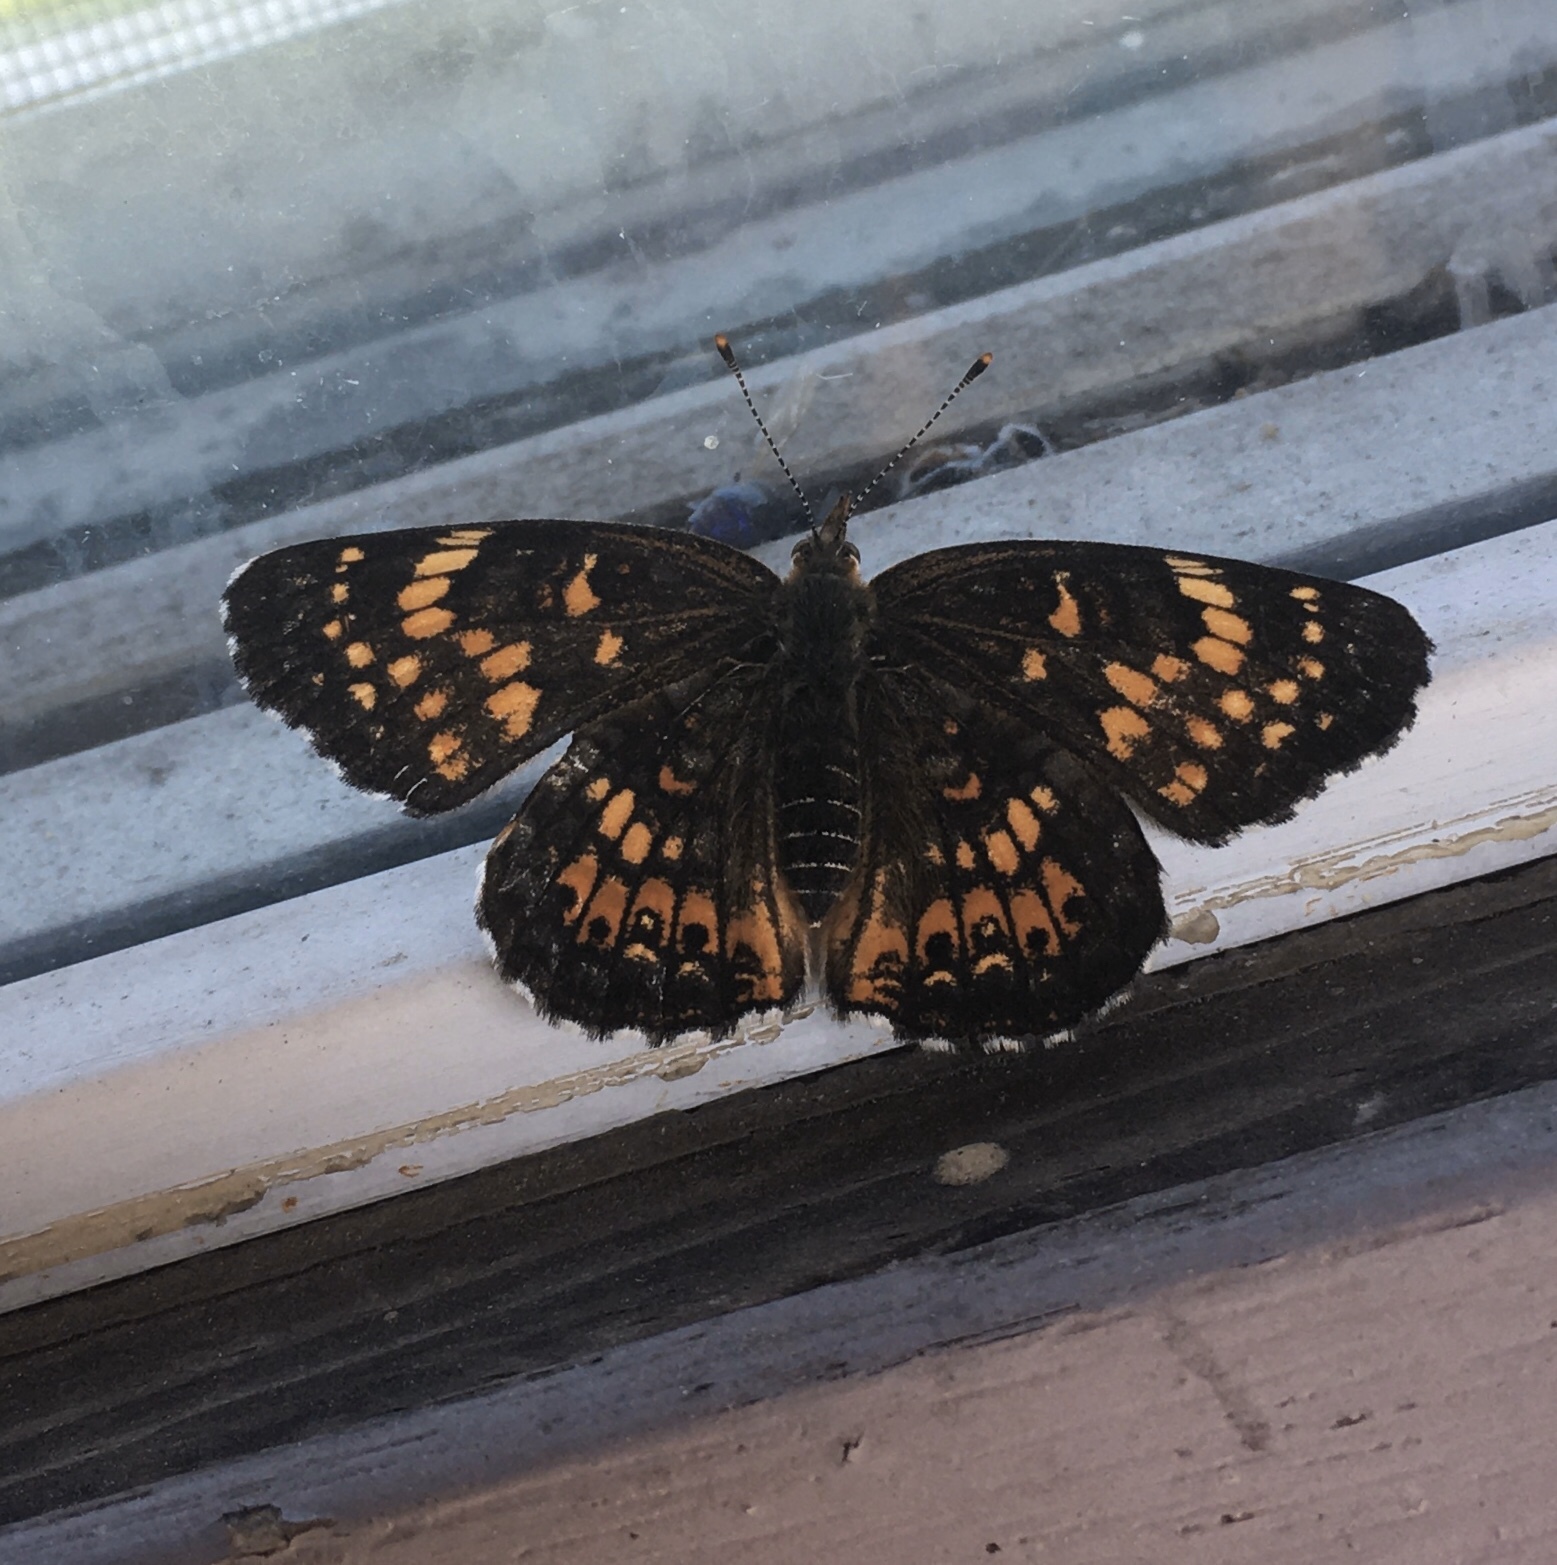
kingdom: Animalia
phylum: Arthropoda
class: Insecta
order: Lepidoptera
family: Nymphalidae
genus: Chlosyne
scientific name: Chlosyne harrisii
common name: Harris's checkerspot
